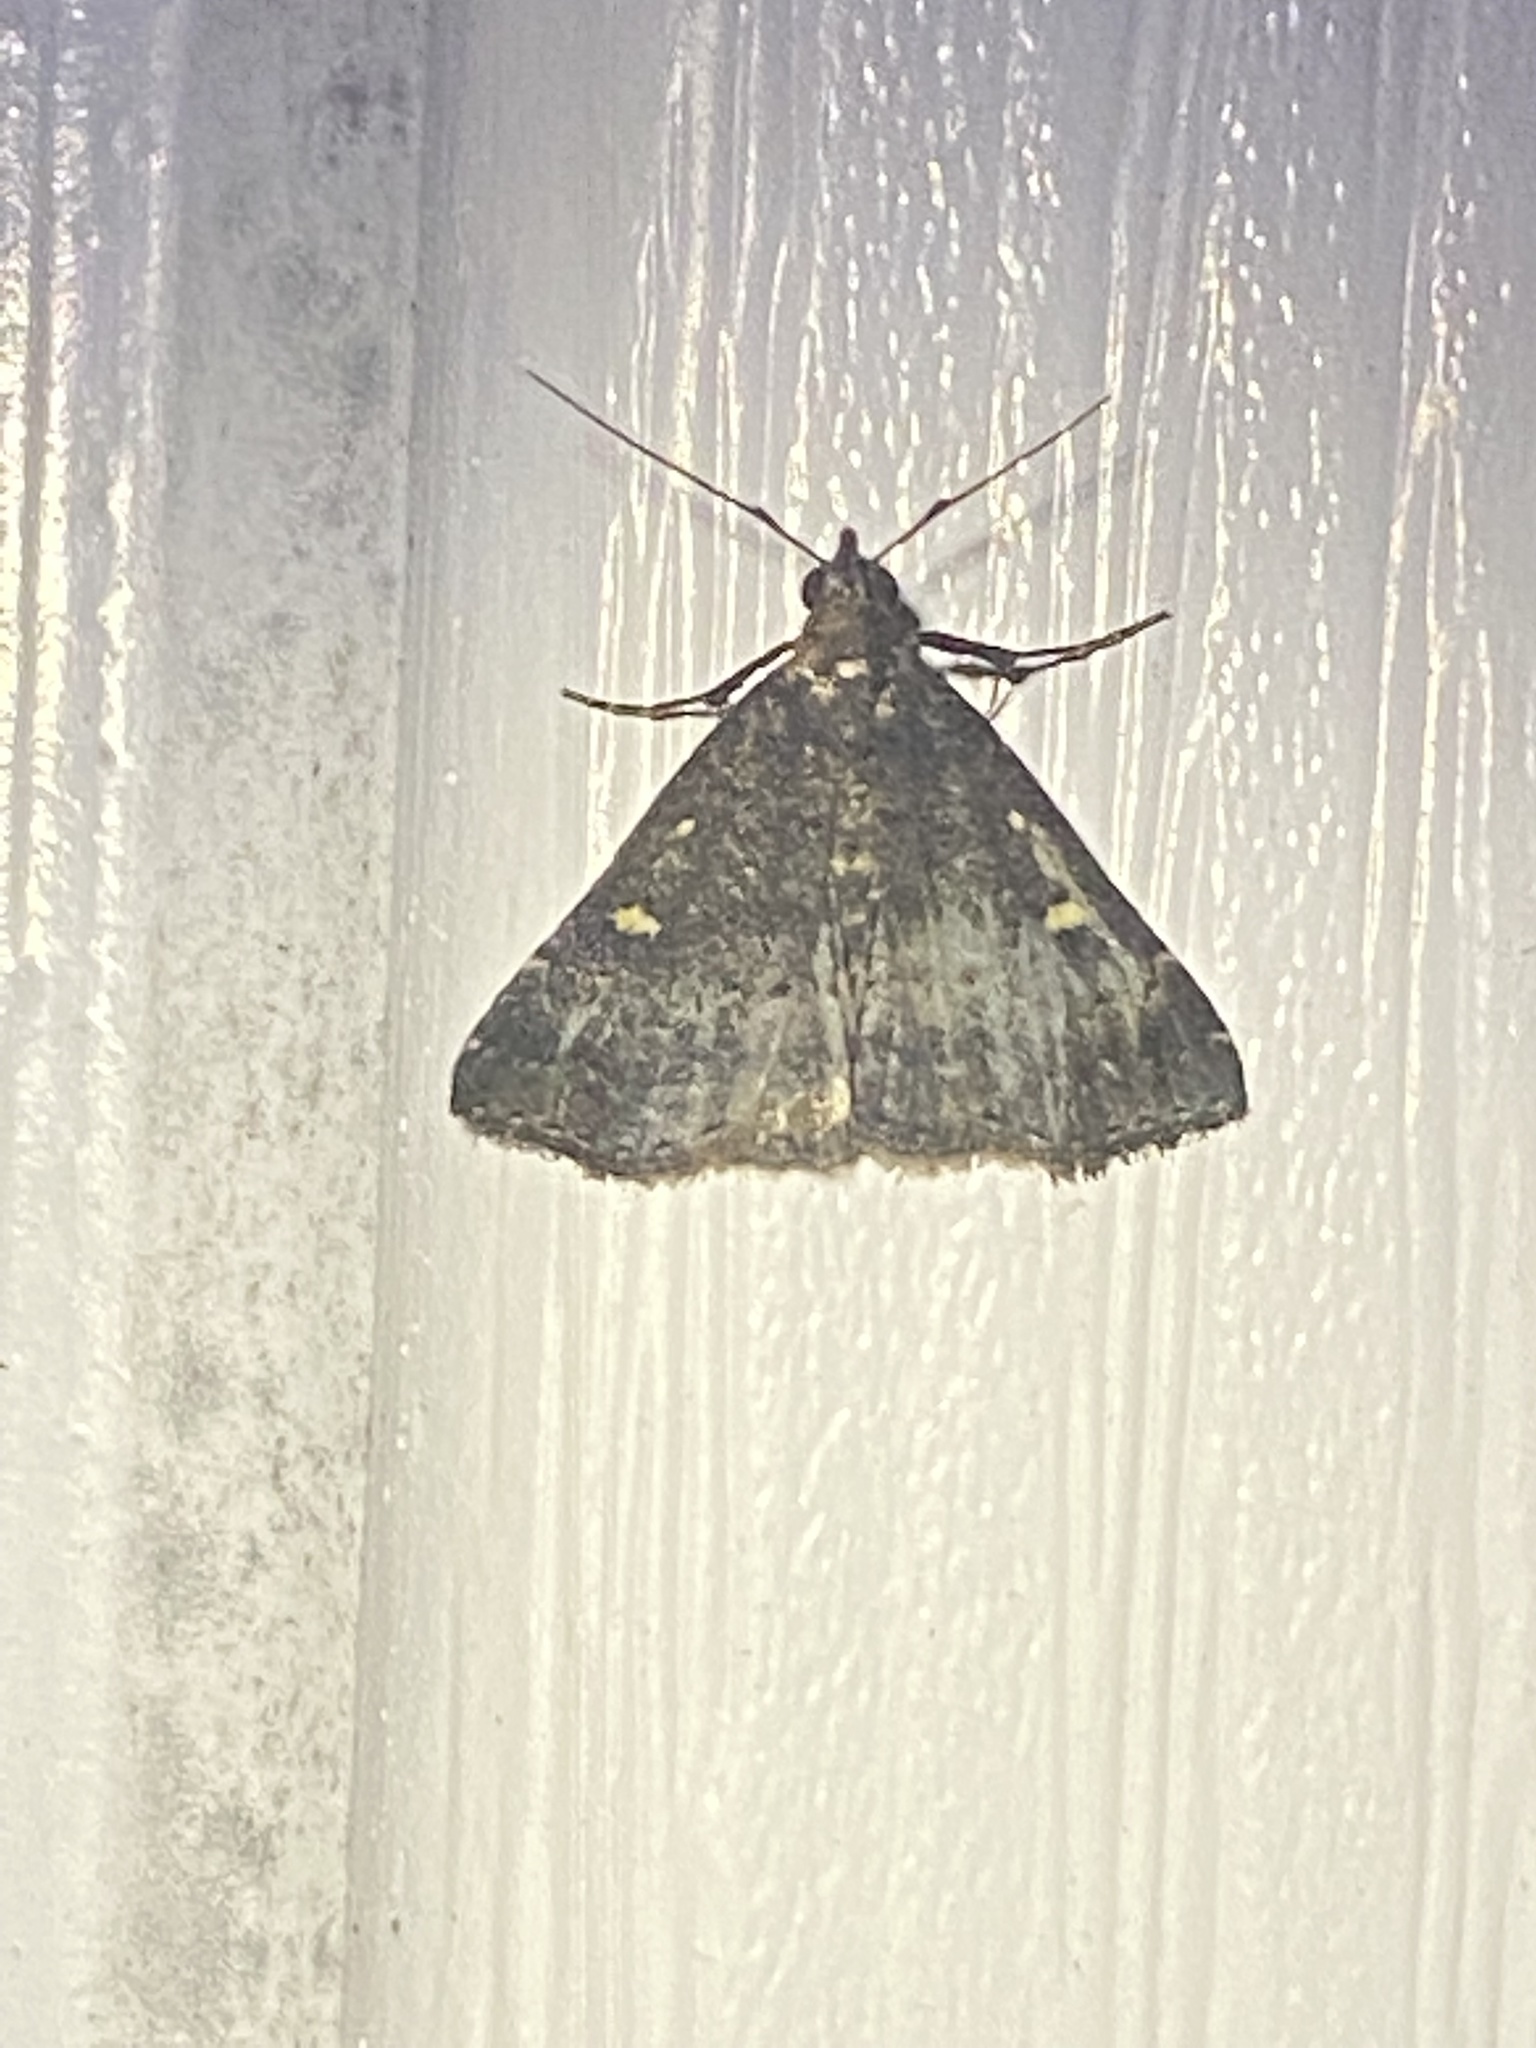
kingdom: Animalia
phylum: Arthropoda
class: Insecta
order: Lepidoptera
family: Erebidae
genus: Tetanolita
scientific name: Tetanolita mynesalis
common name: Smoky tetanolita moth
